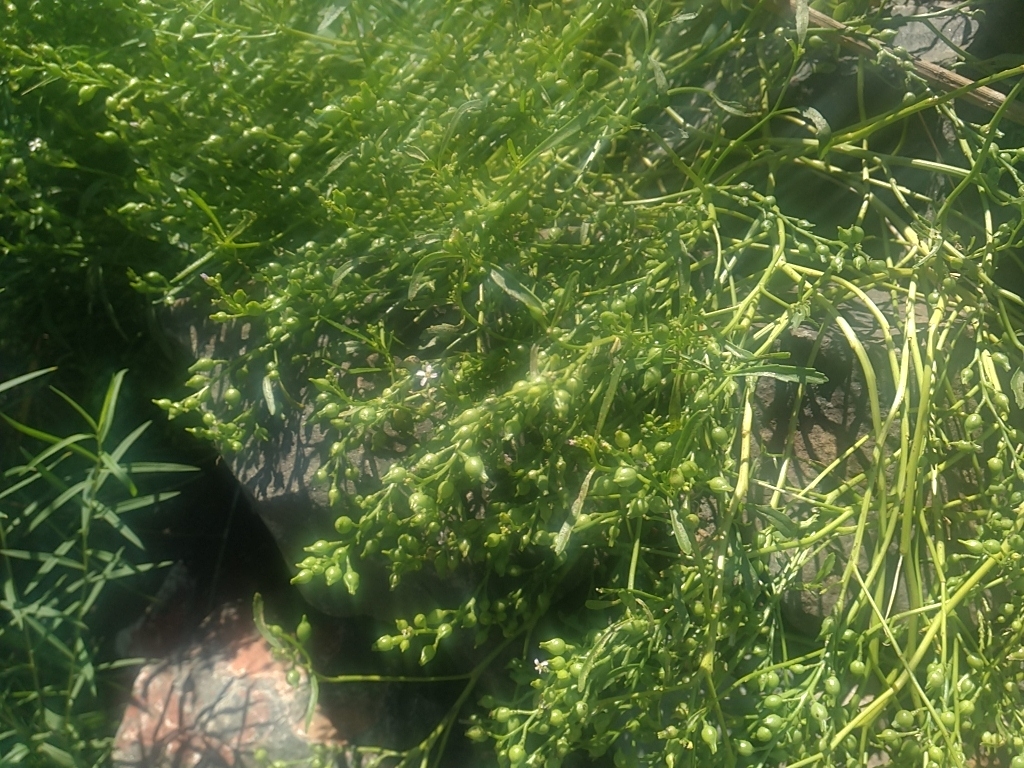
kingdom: Plantae
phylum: Tracheophyta
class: Magnoliopsida
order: Brassicales
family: Brassicaceae
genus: Cakile
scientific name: Cakile edentula
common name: American sea rocket
